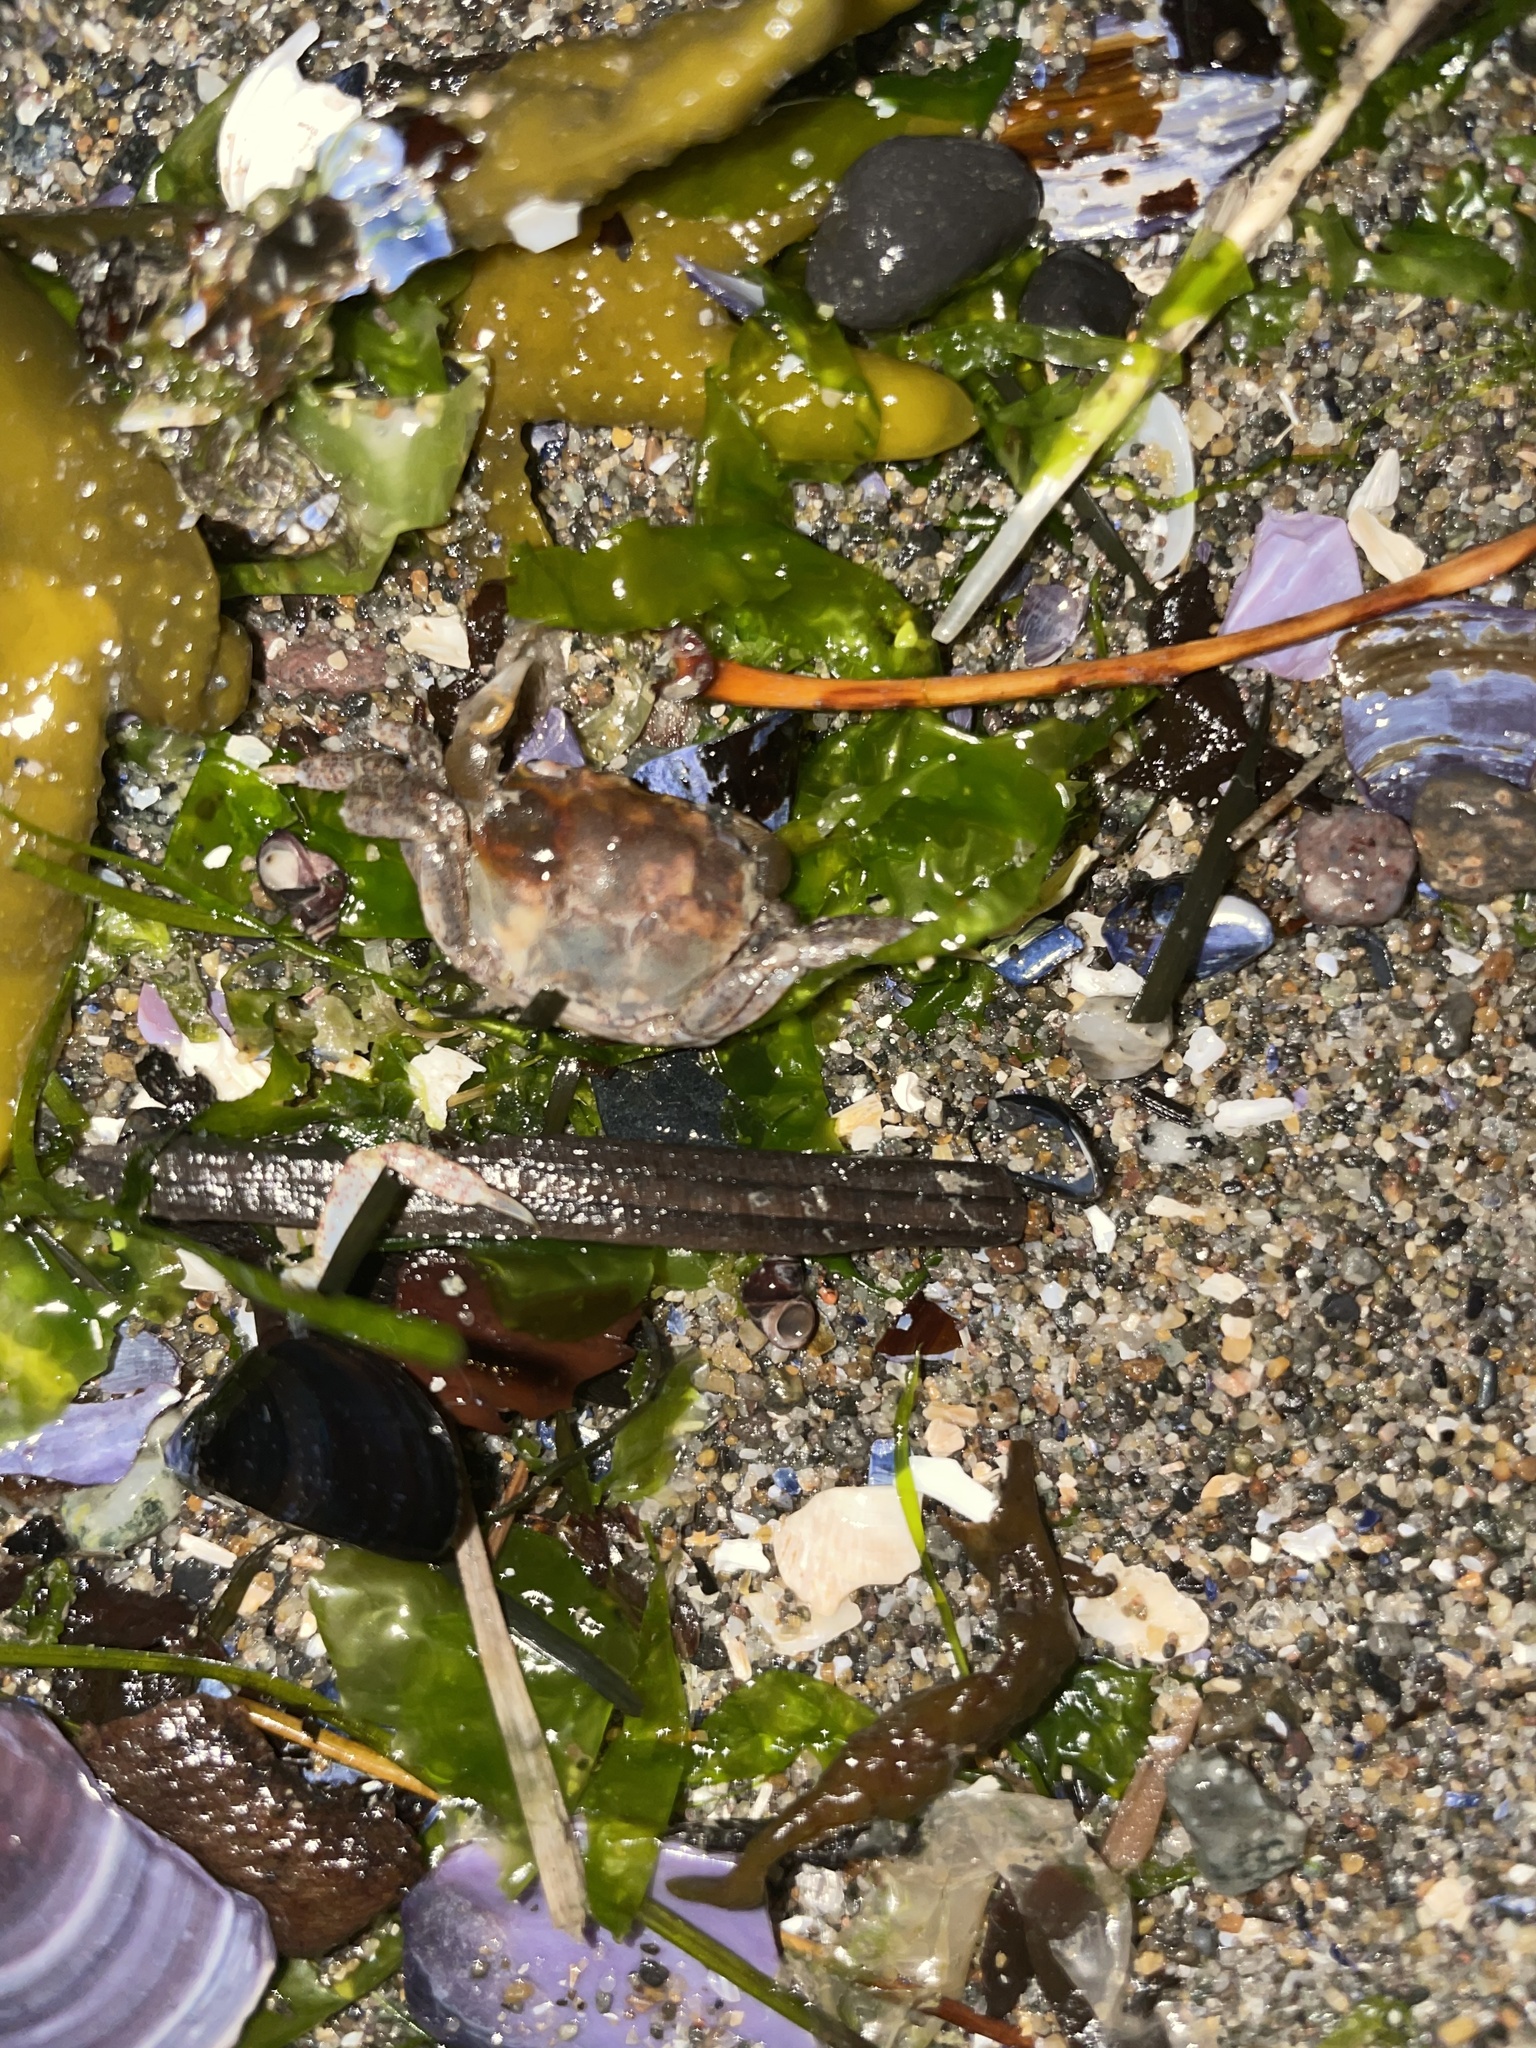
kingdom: Animalia
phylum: Arthropoda
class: Malacostraca
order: Decapoda
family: Varunidae
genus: Hemigrapsus
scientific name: Hemigrapsus oregonensis
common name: Yellow shore crab
